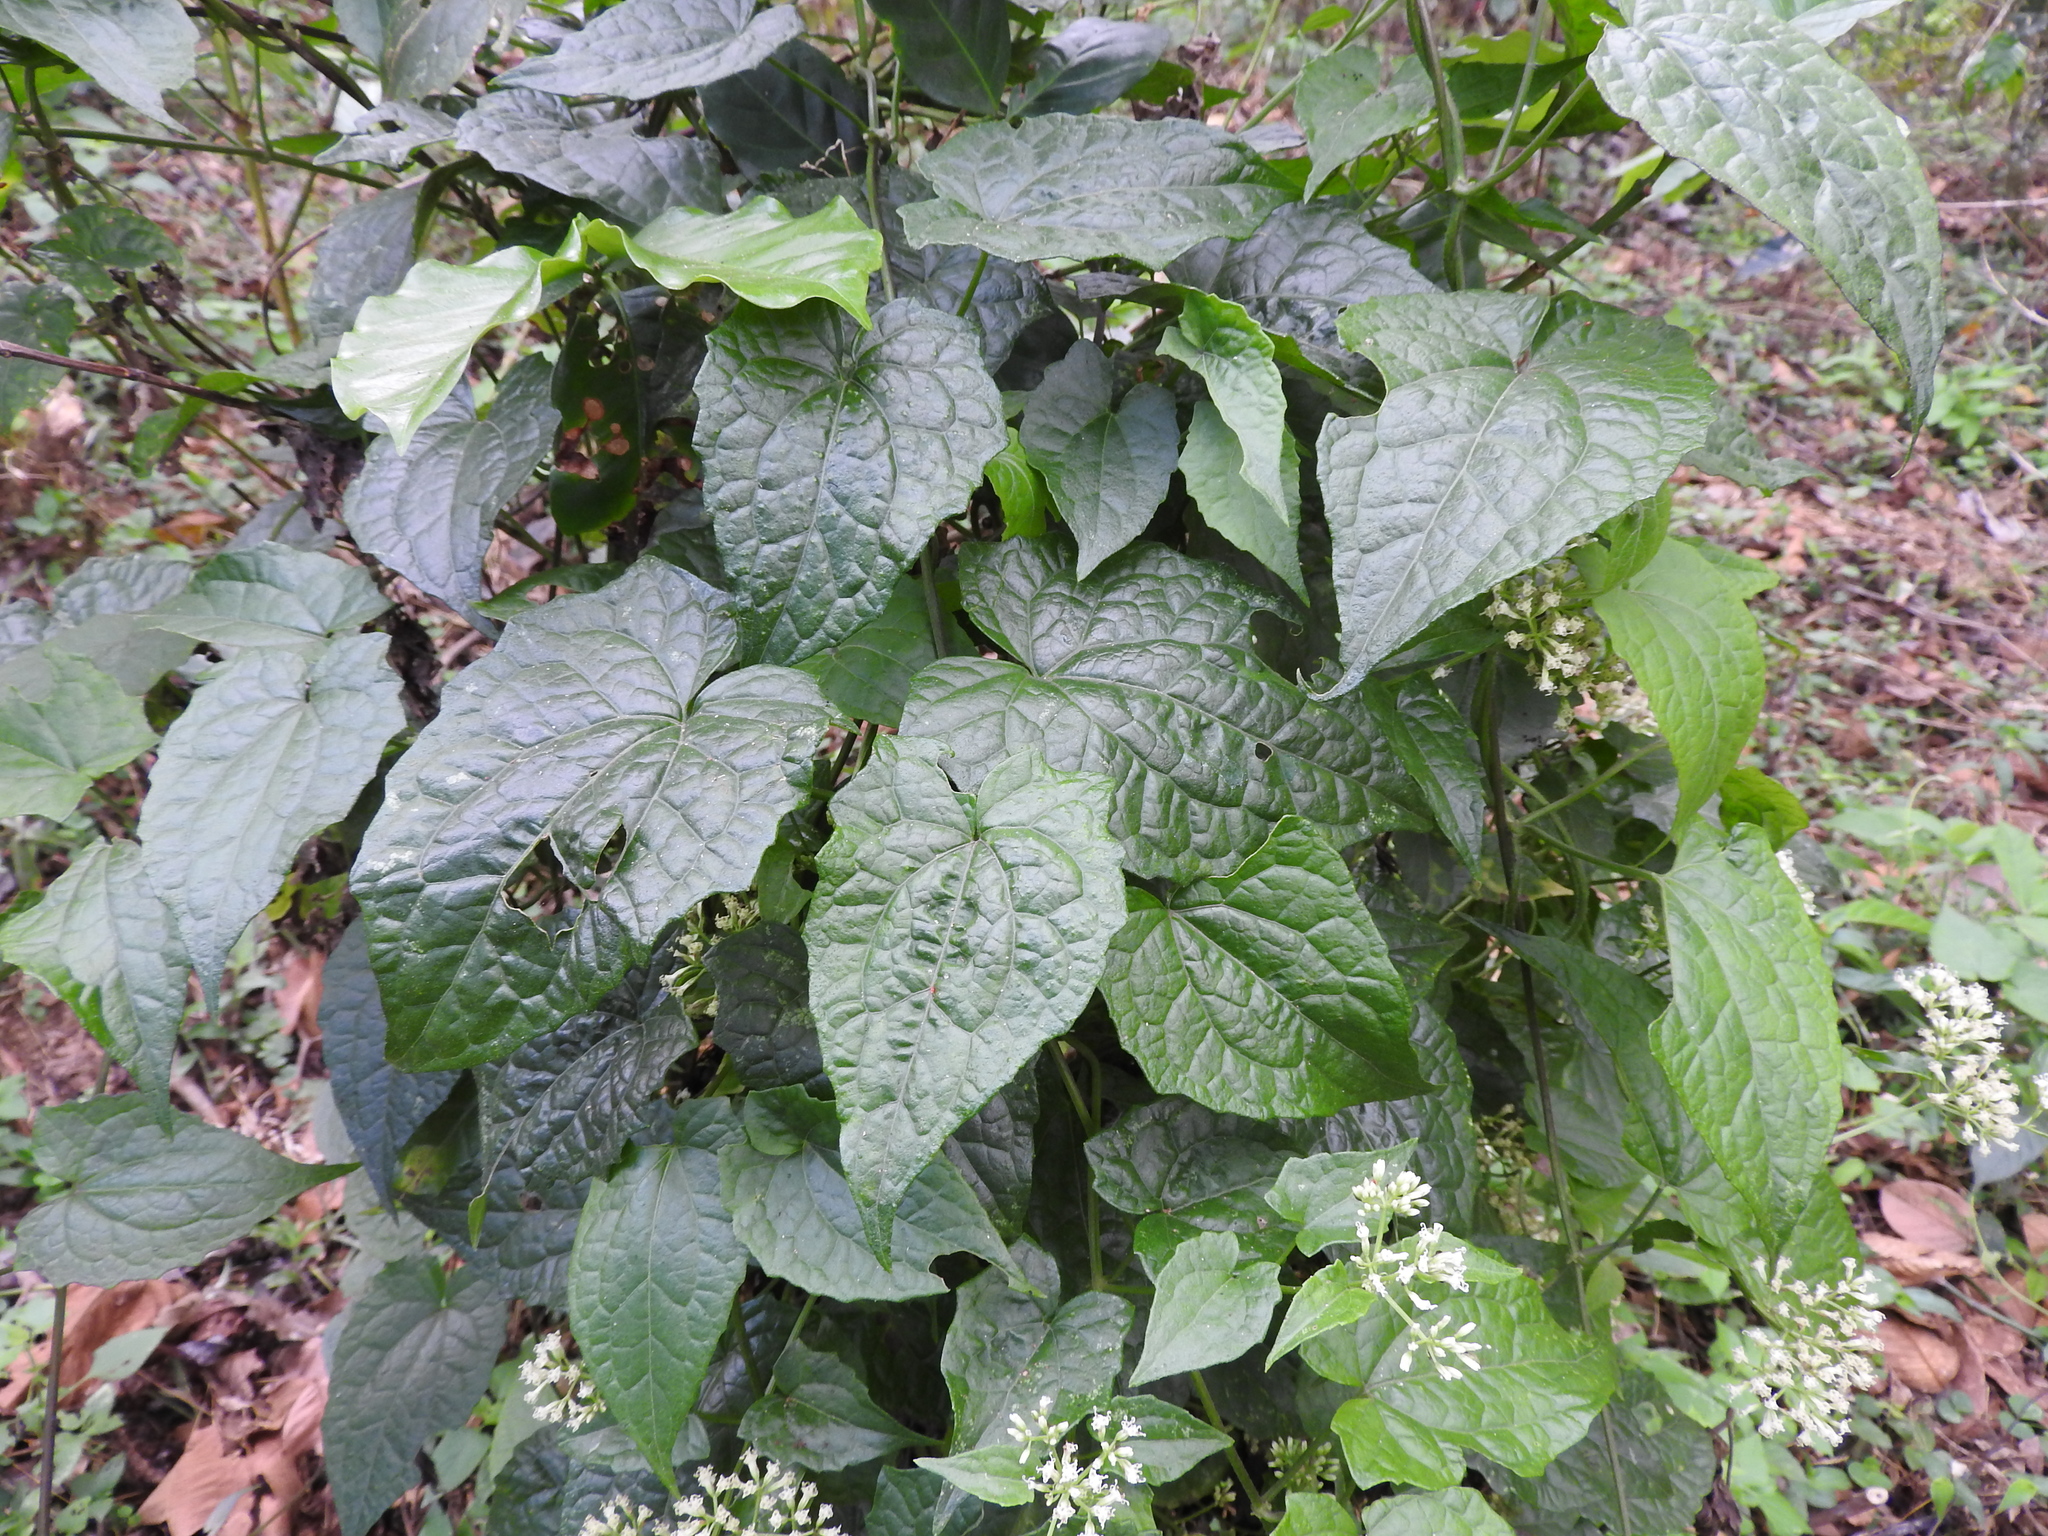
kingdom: Plantae
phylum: Tracheophyta
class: Magnoliopsida
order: Asterales
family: Asteraceae
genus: Mikania
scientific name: Mikania micrantha
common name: Mile-a-minute
